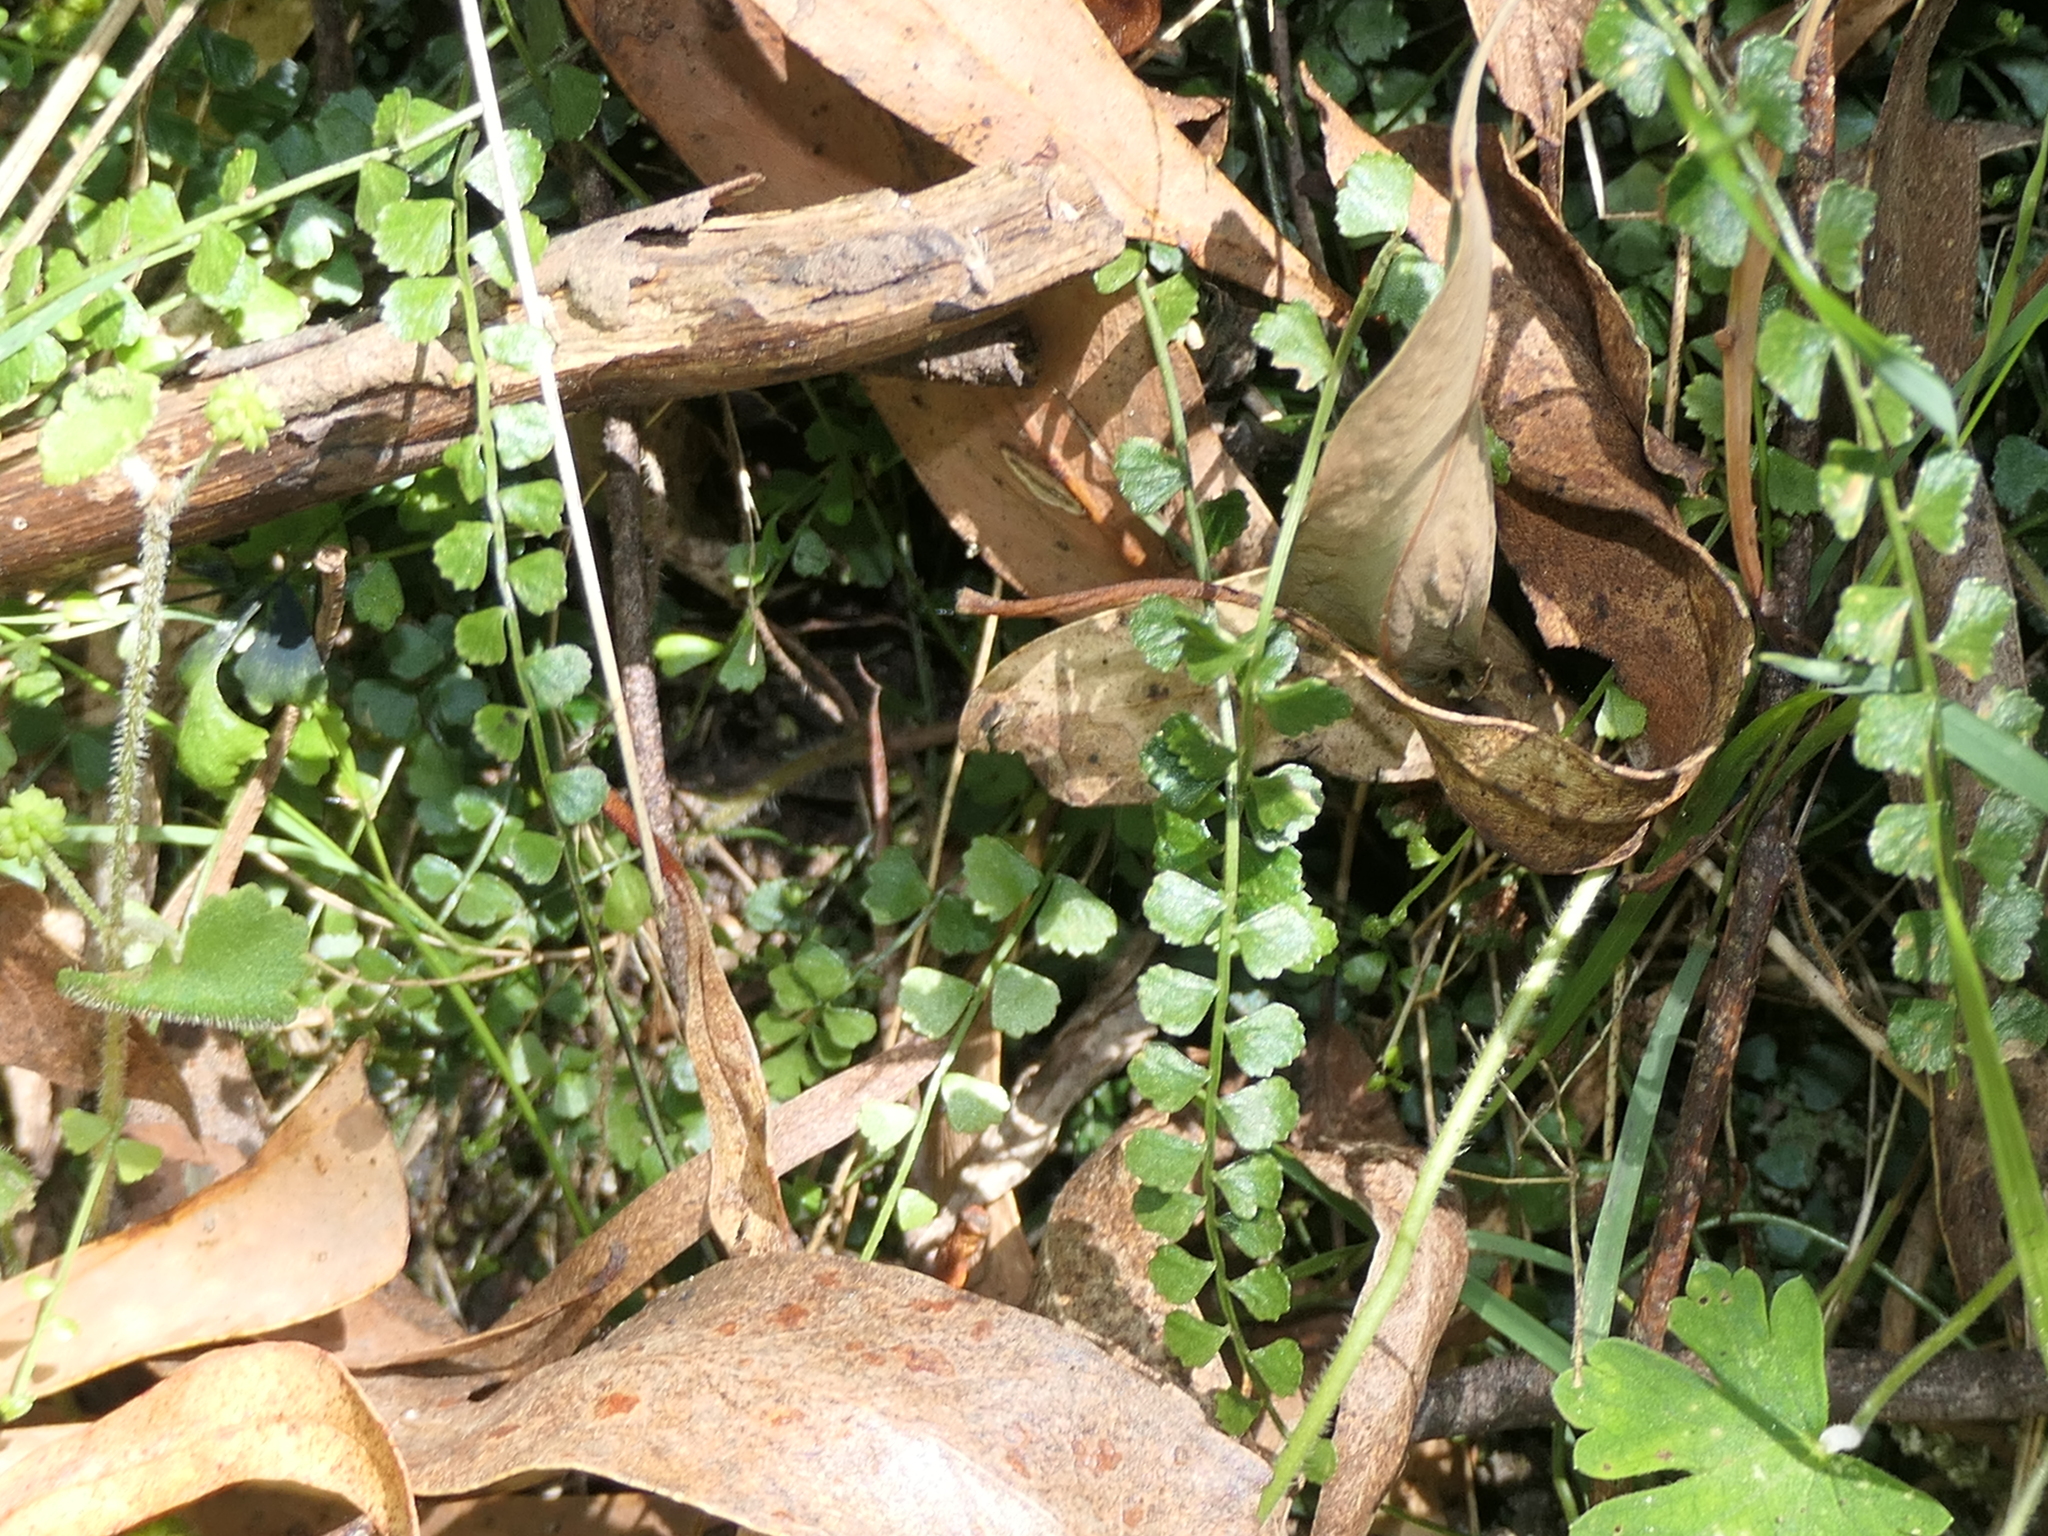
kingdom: Plantae
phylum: Tracheophyta
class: Polypodiopsida
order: Polypodiales
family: Aspleniaceae
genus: Asplenium
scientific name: Asplenium flabellifolium
